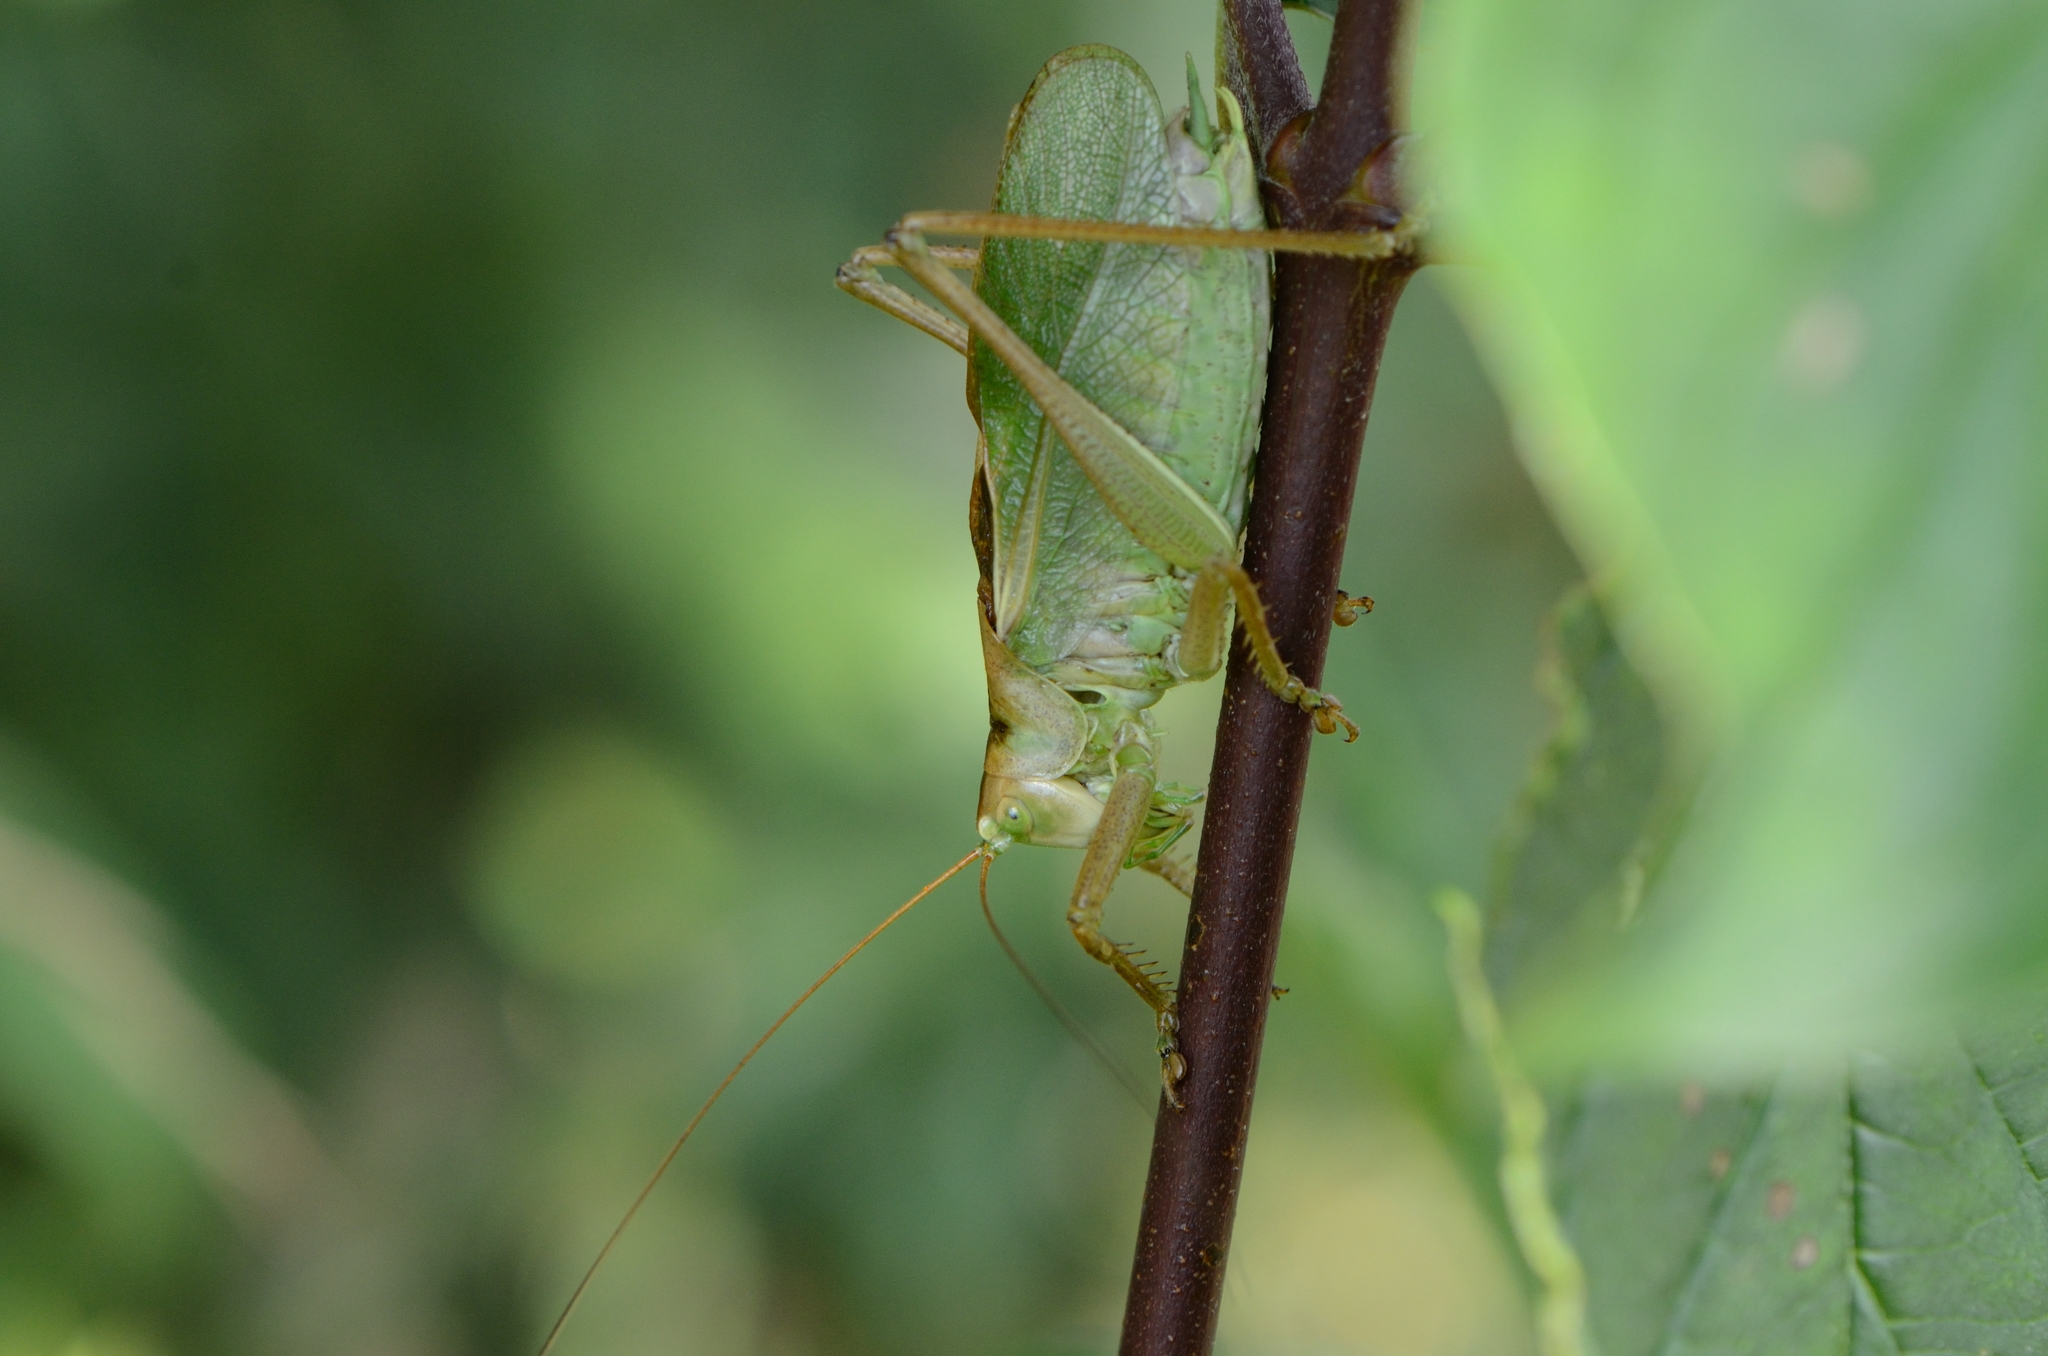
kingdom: Animalia
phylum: Arthropoda
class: Insecta
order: Orthoptera
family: Tettigoniidae
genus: Tettigonia
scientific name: Tettigonia cantans
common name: Upland green bush-cricket
